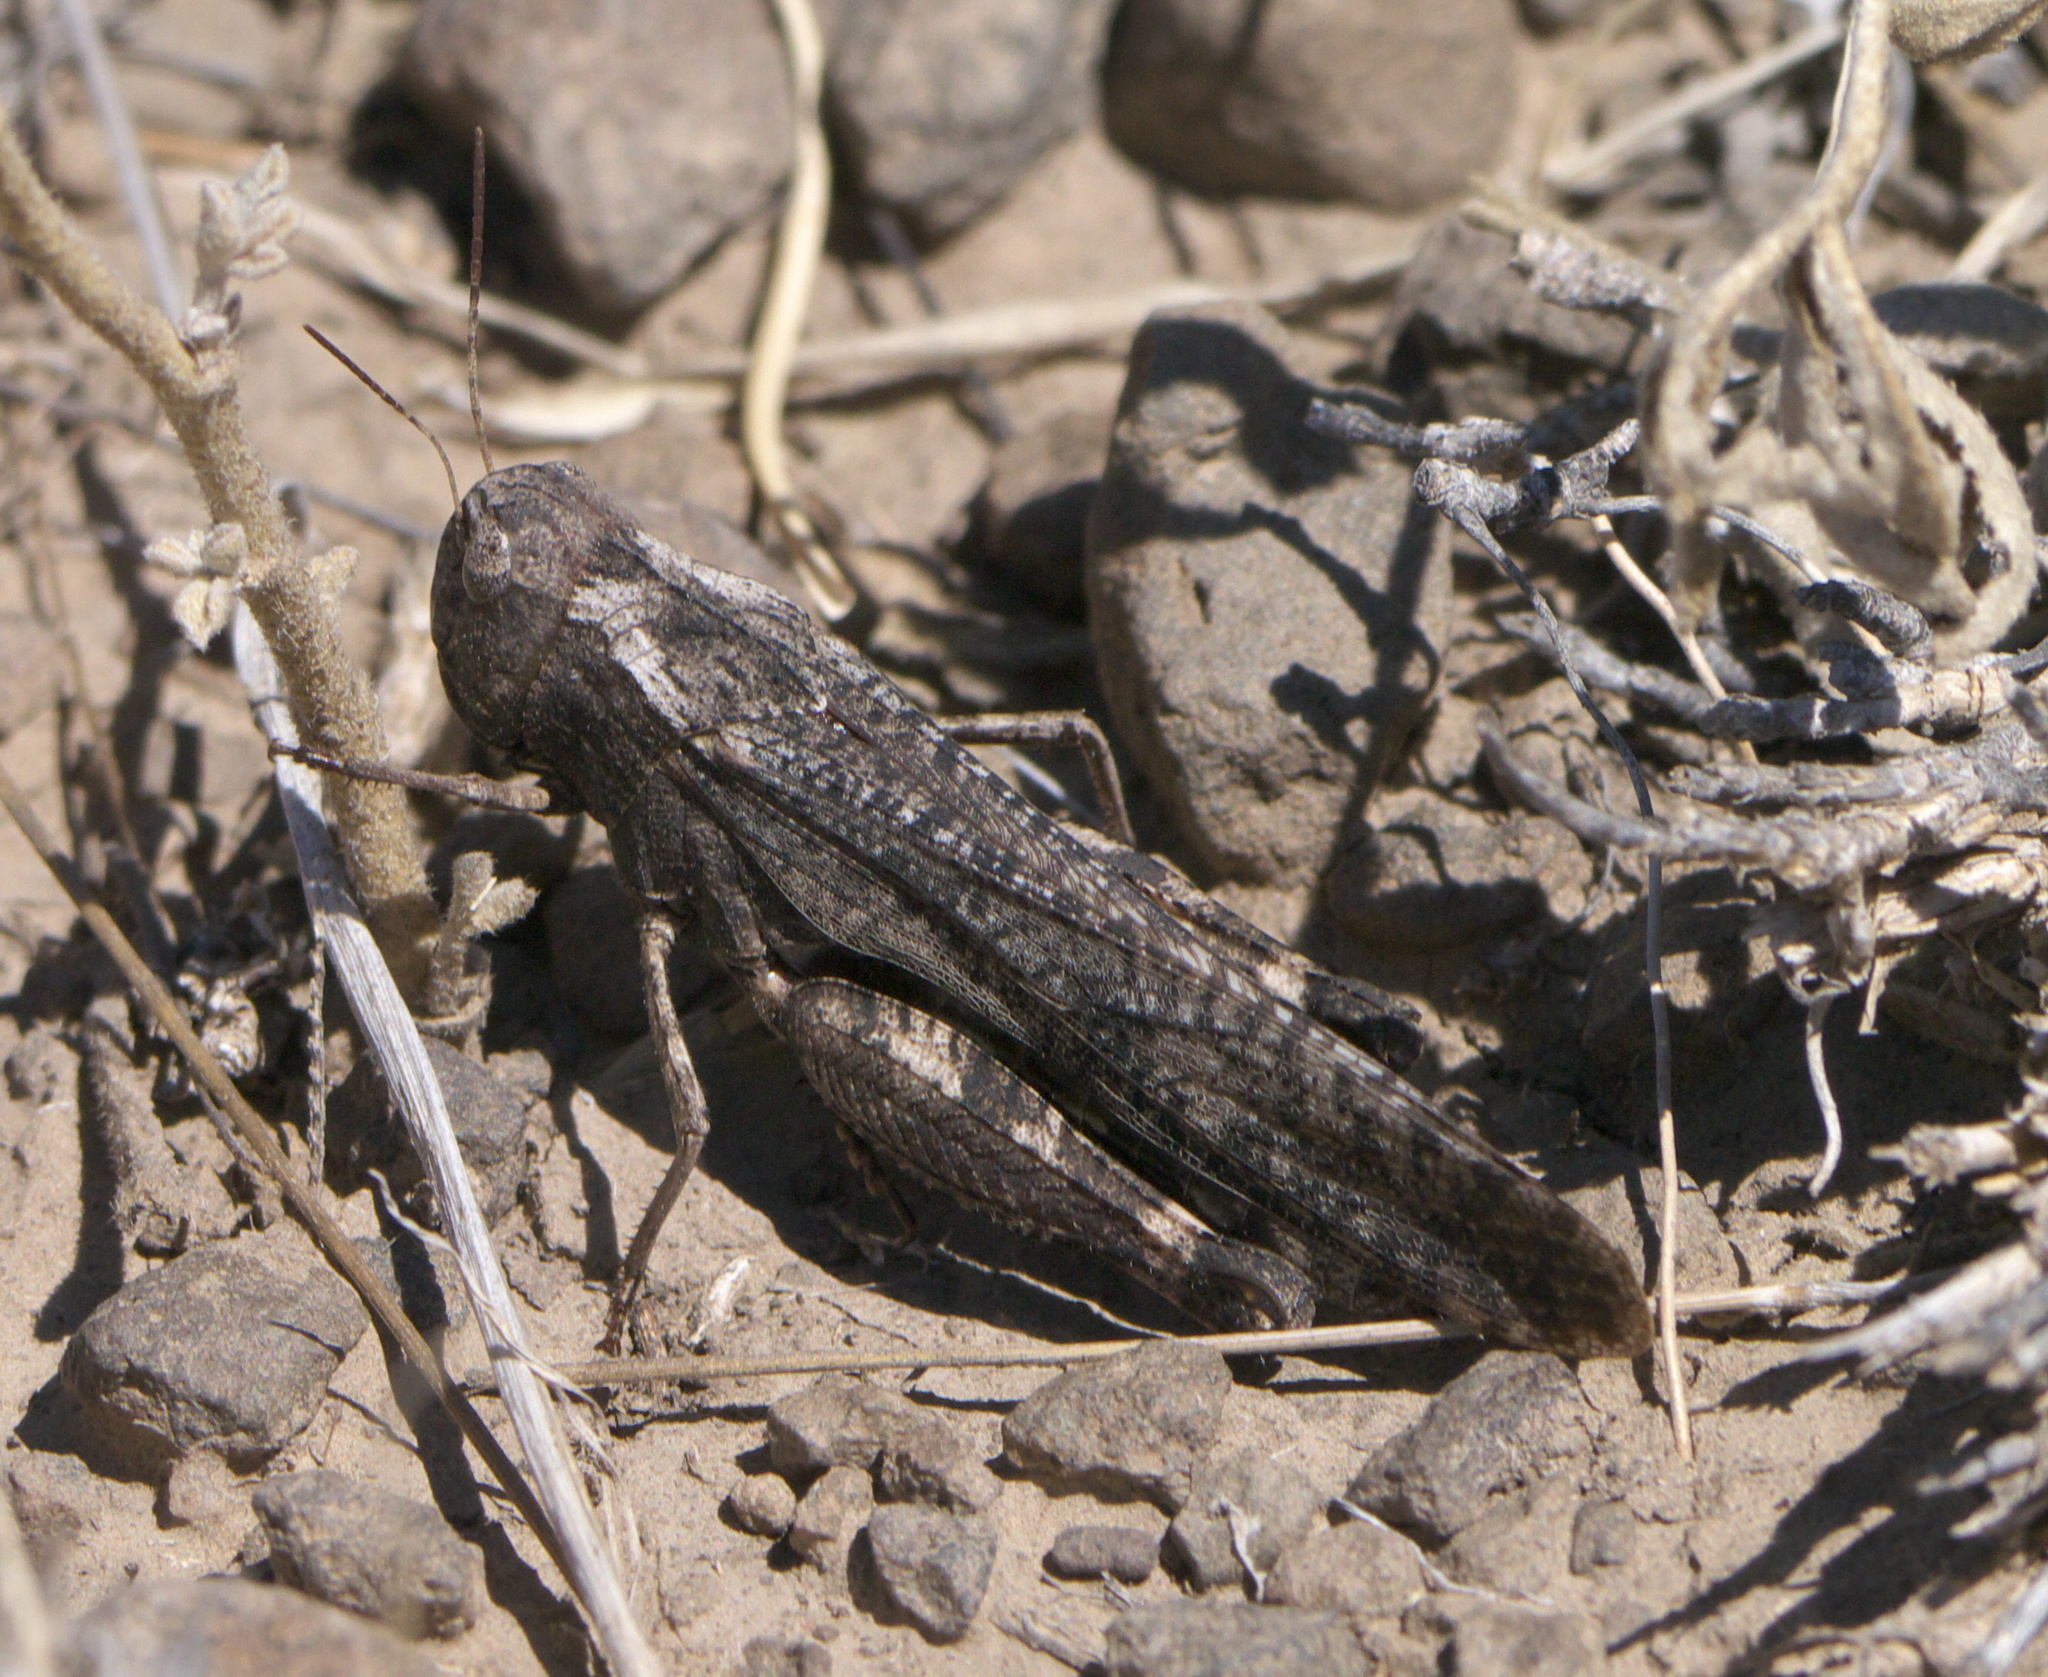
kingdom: Animalia
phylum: Arthropoda
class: Insecta
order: Orthoptera
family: Acrididae
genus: Arphia
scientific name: Arphia pseudo-nietana
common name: Red-winged grasshopper
